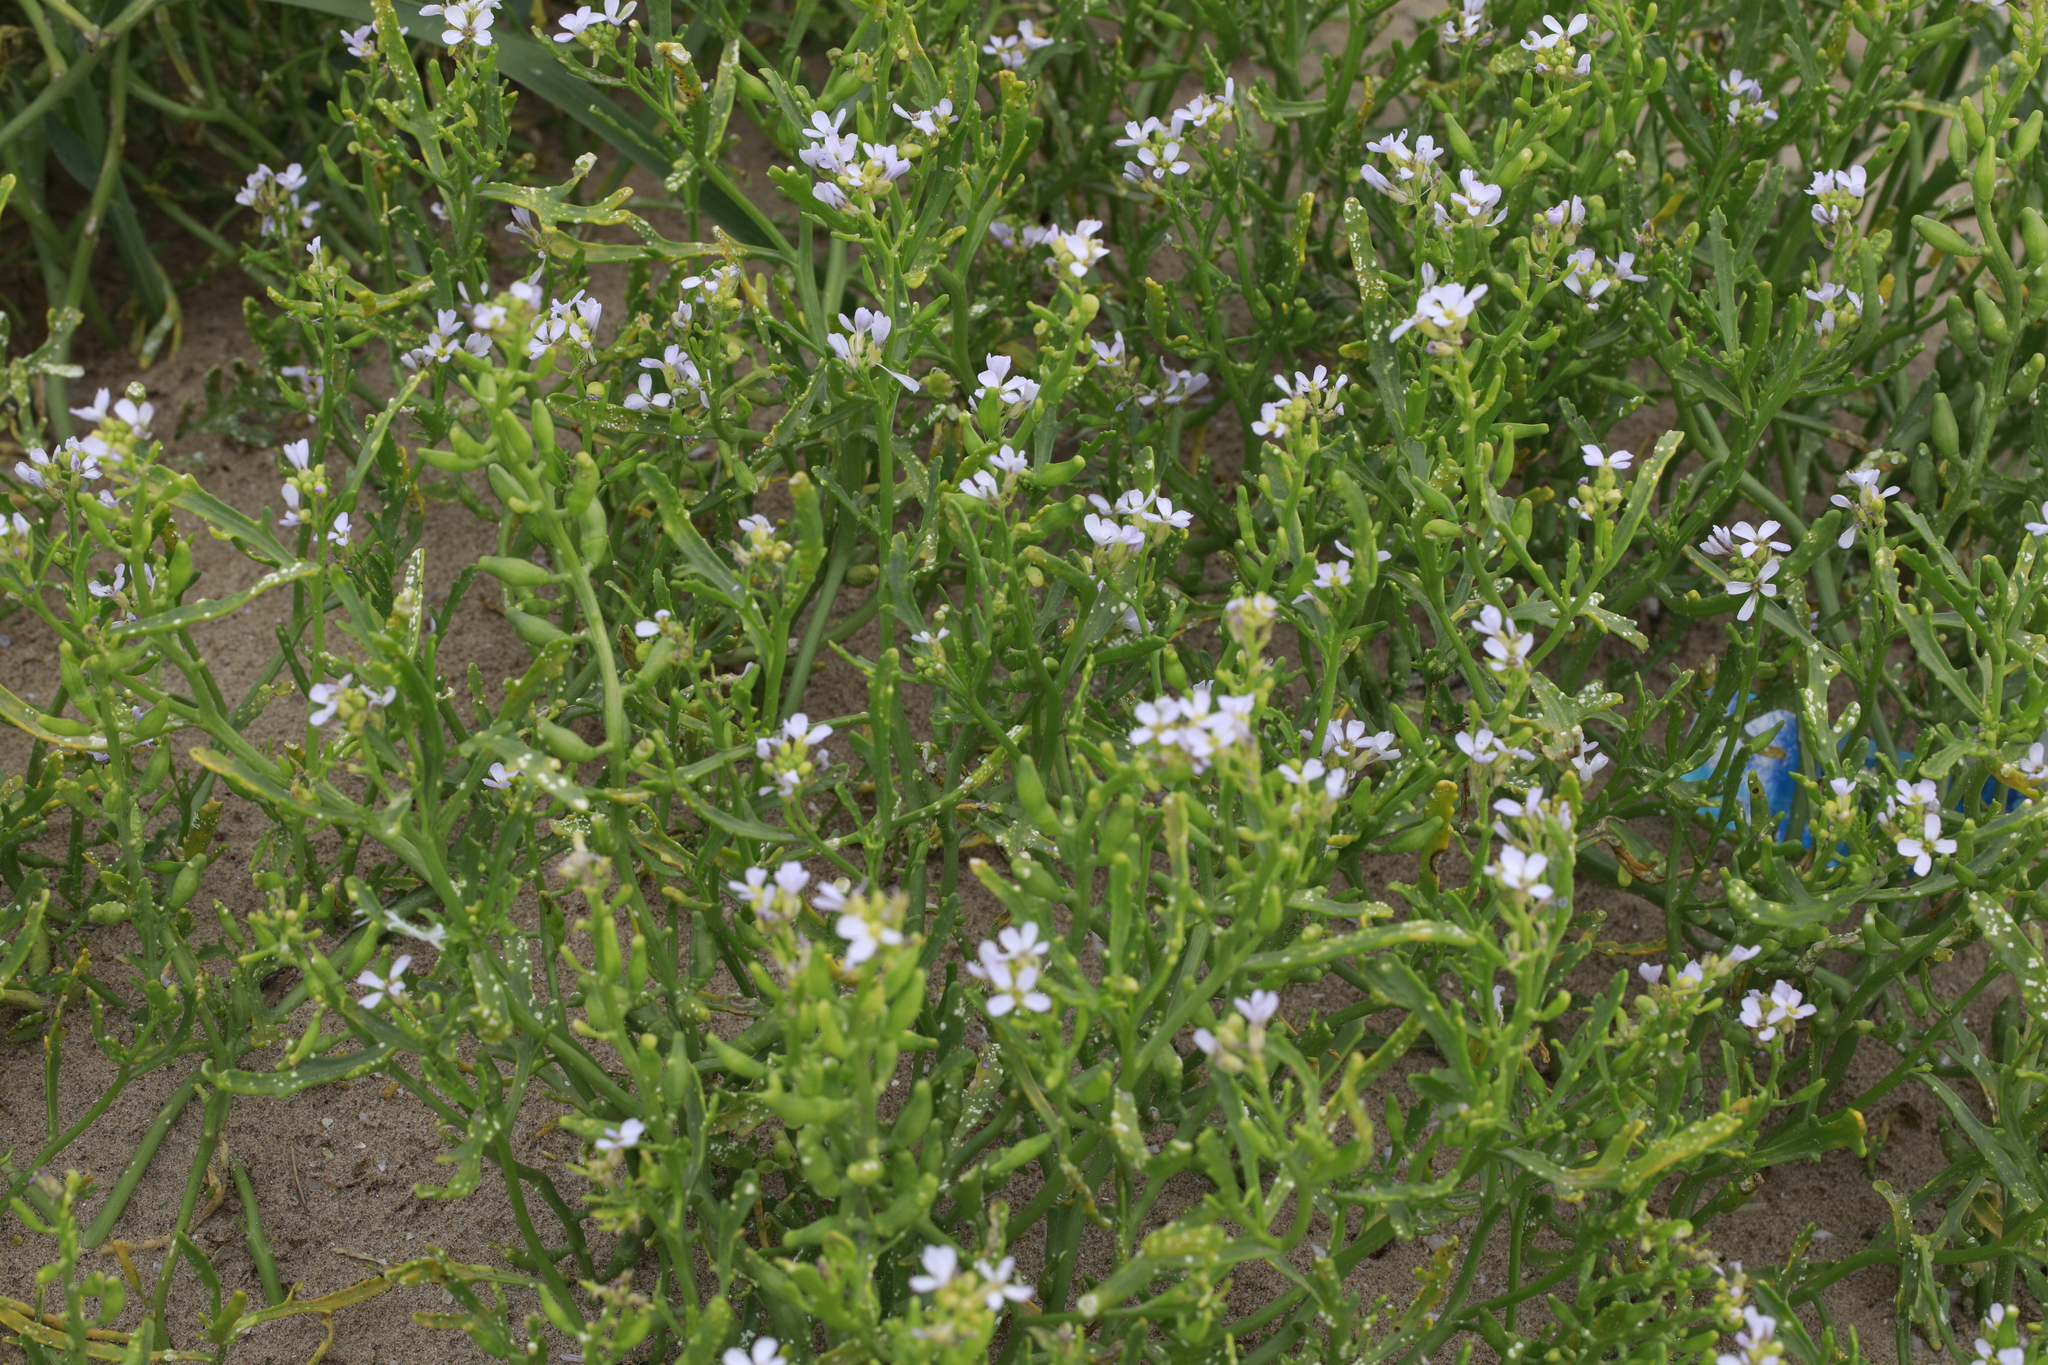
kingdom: Plantae
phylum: Tracheophyta
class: Magnoliopsida
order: Brassicales
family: Brassicaceae
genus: Cakile
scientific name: Cakile maritima
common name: Sea rocket
